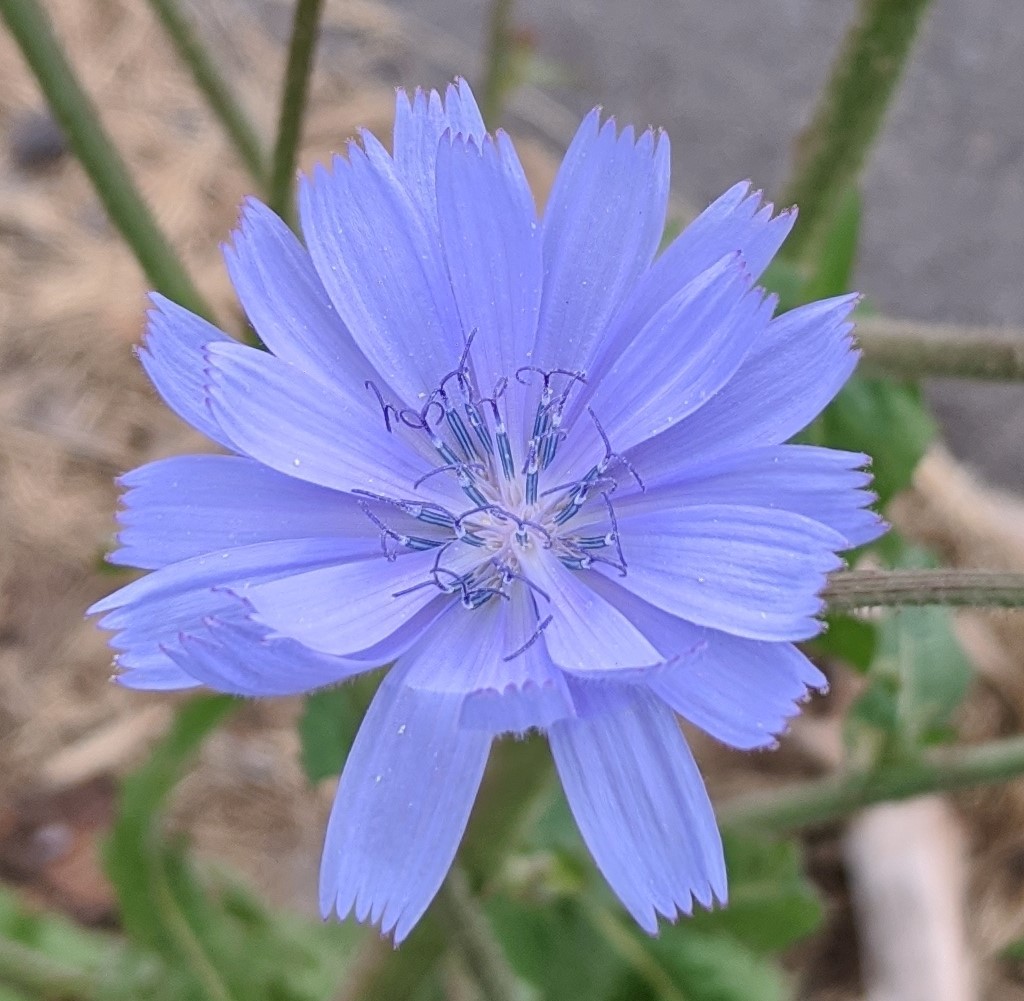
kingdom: Plantae
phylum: Tracheophyta
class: Magnoliopsida
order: Asterales
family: Asteraceae
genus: Cichorium
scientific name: Cichorium intybus
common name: Chicory
